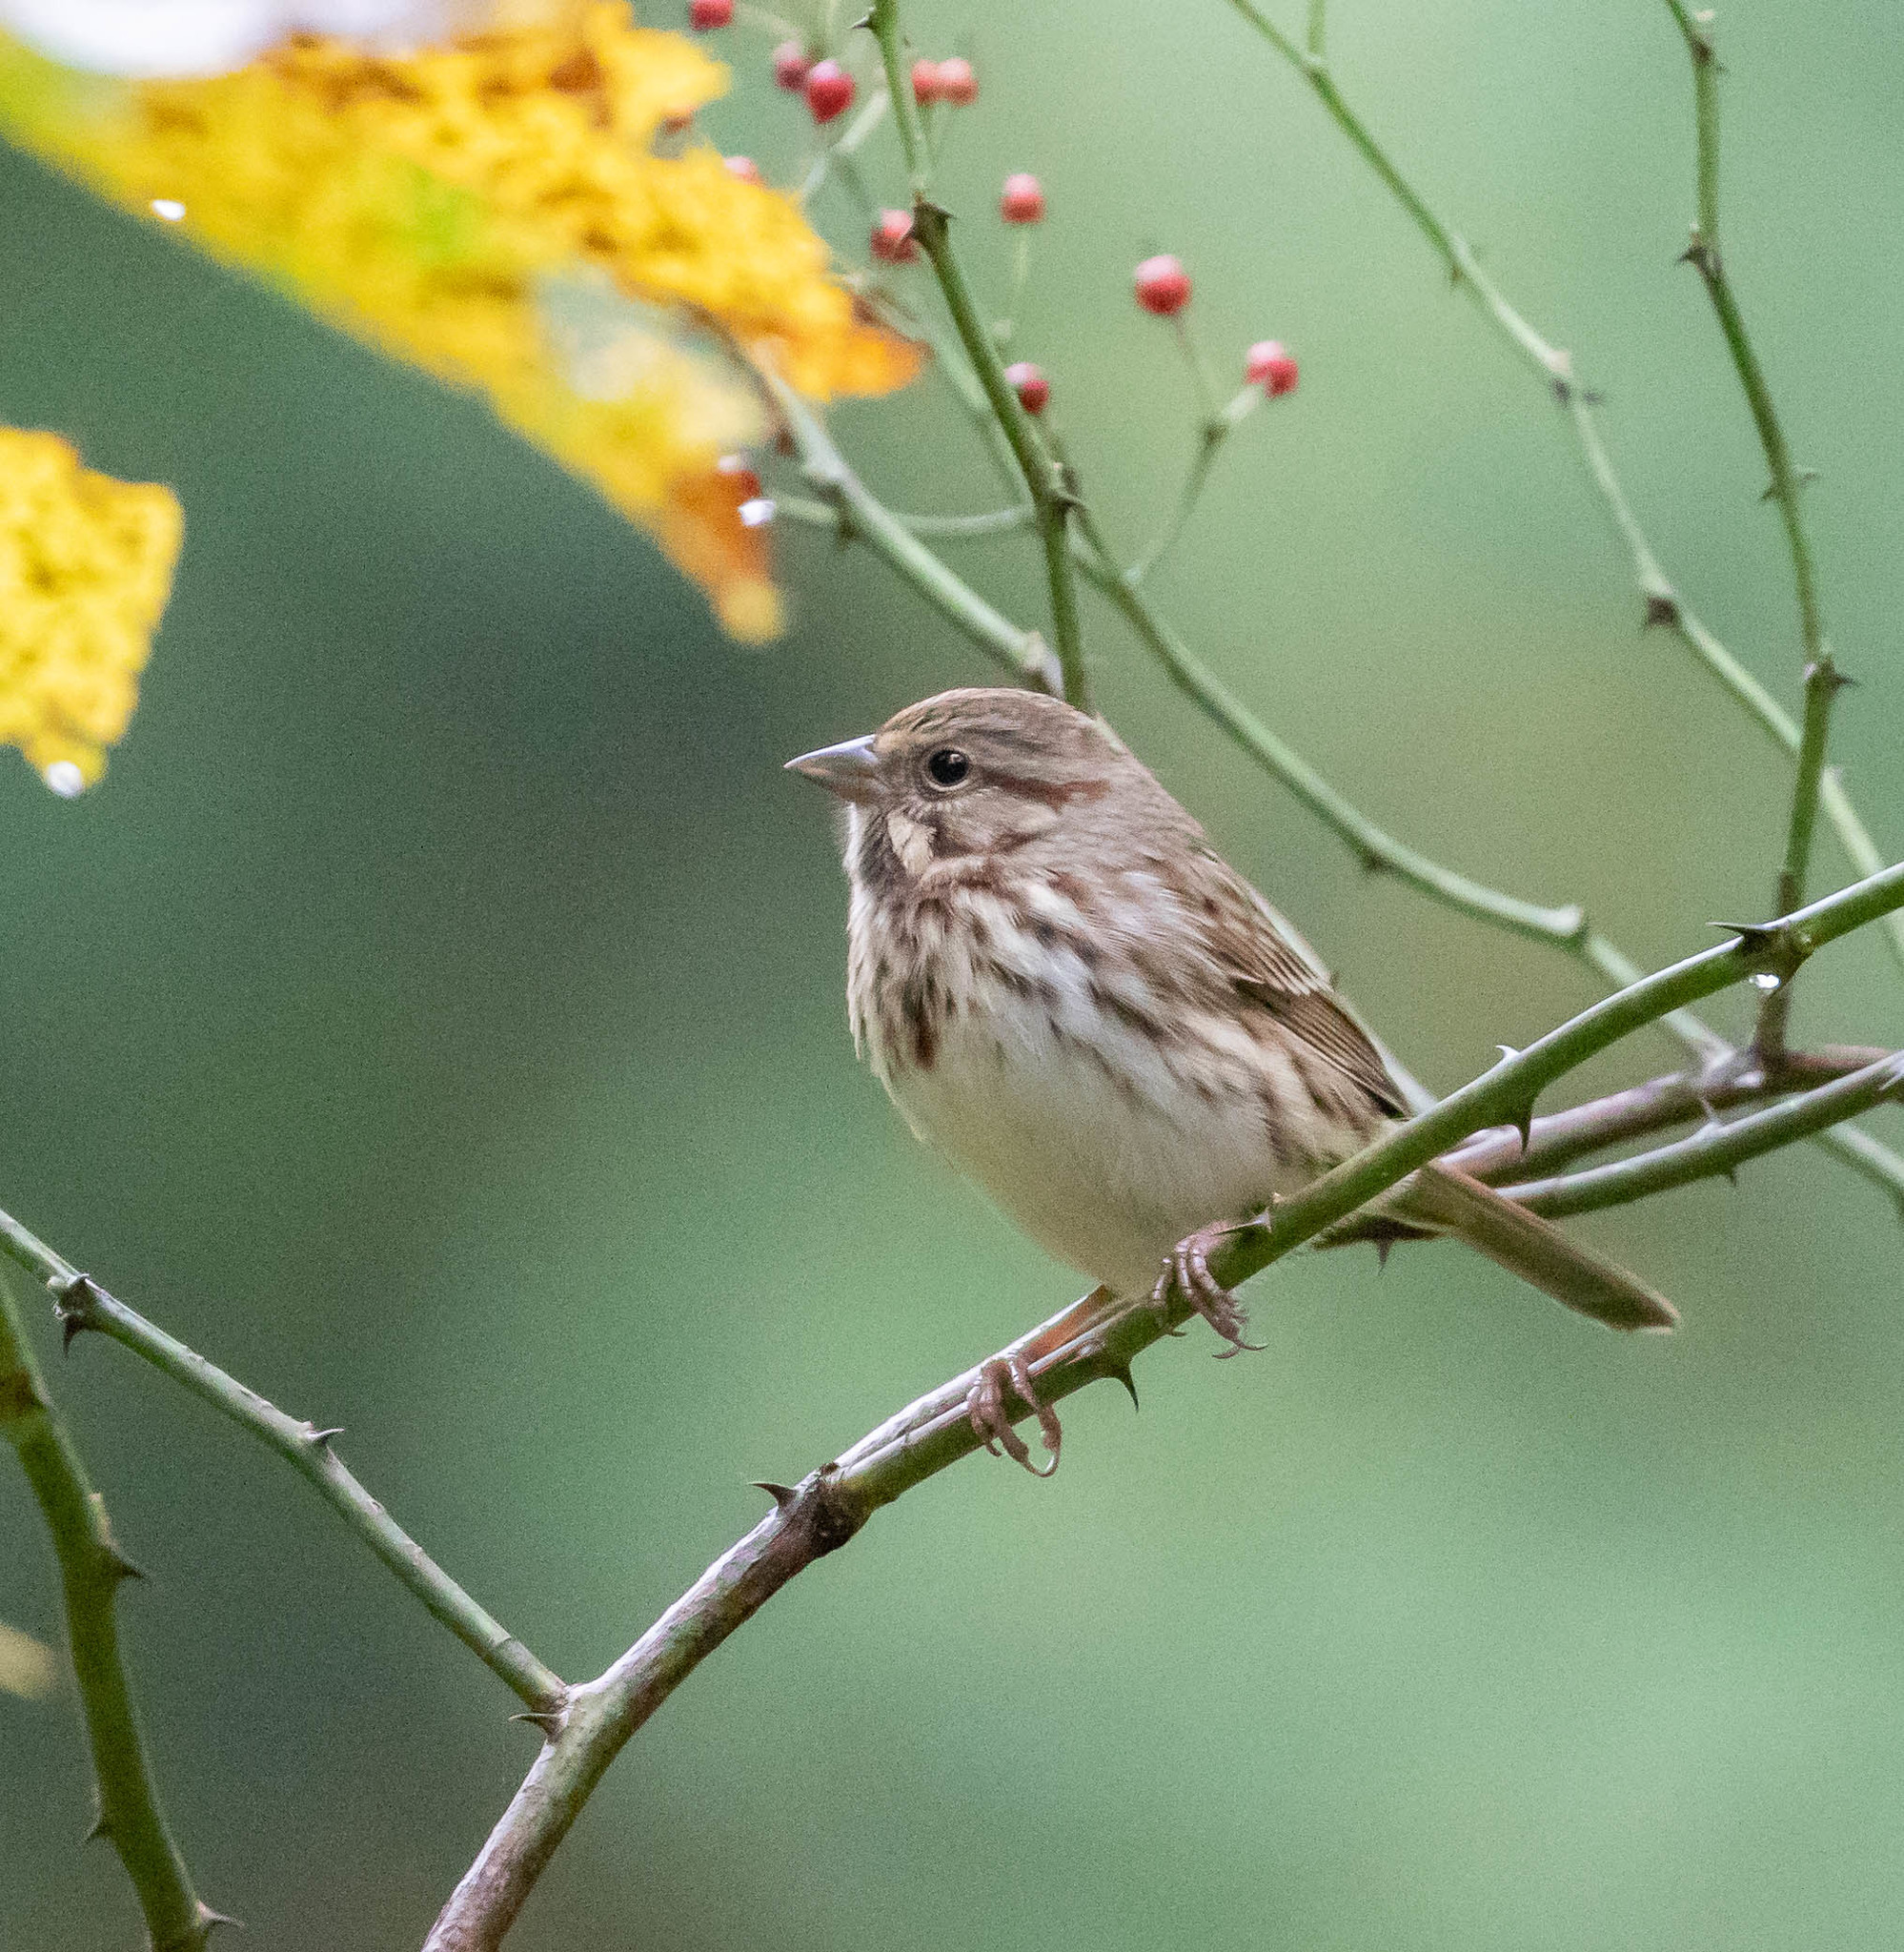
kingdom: Animalia
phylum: Chordata
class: Aves
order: Passeriformes
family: Passerellidae
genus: Melospiza
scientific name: Melospiza melodia
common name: Song sparrow
